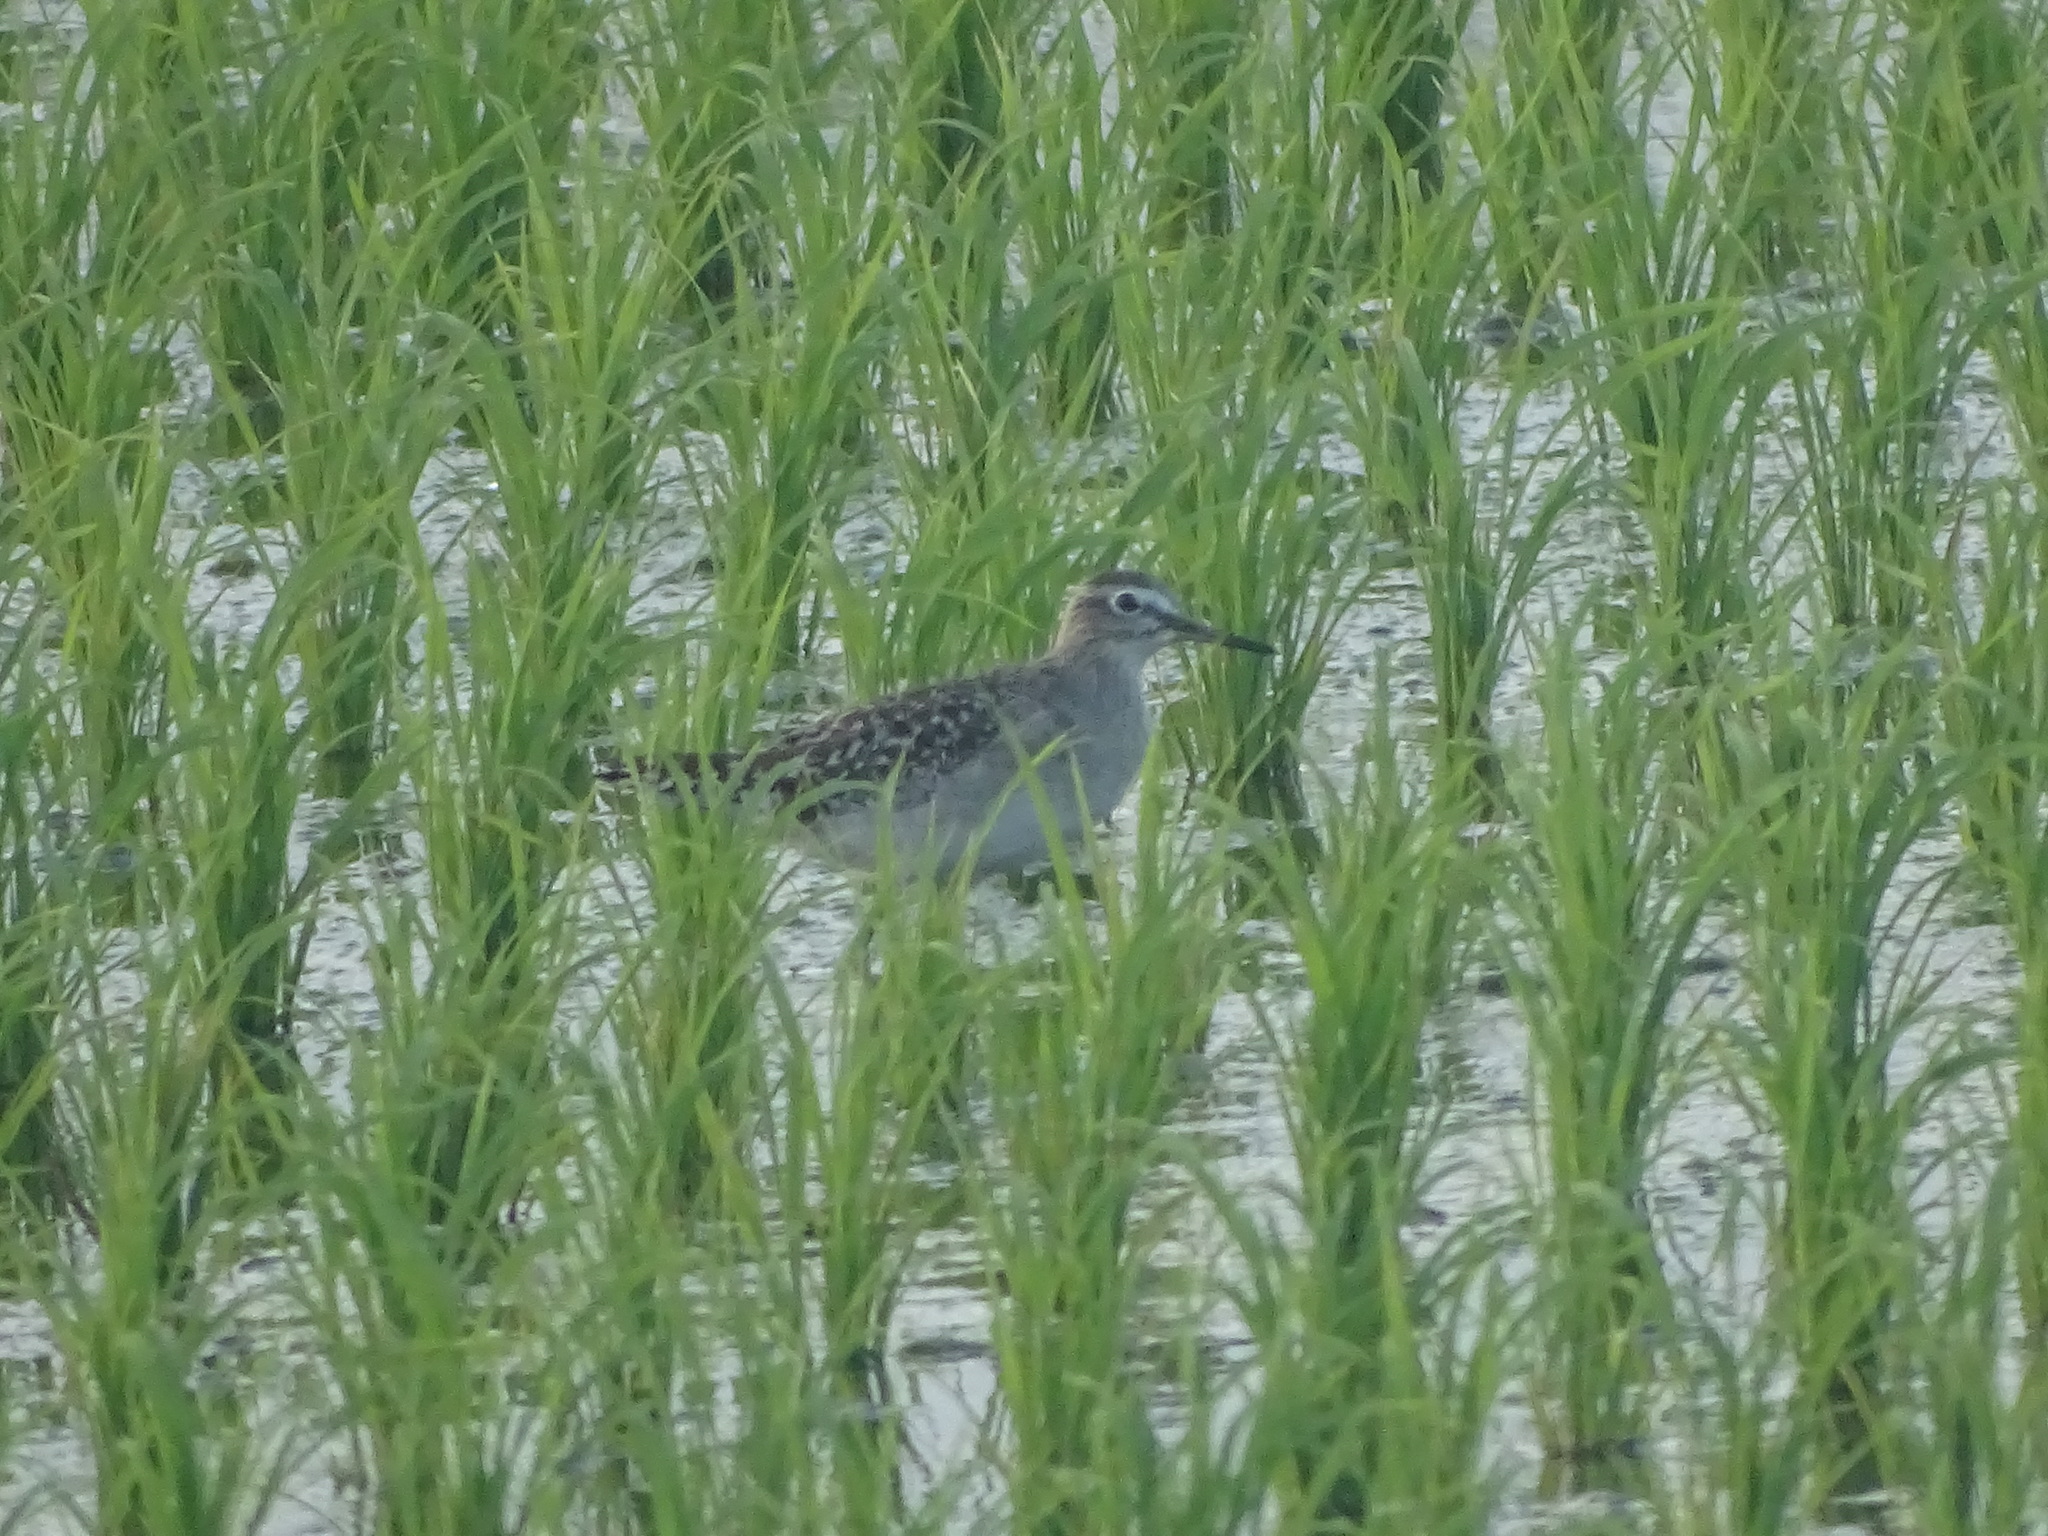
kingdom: Animalia
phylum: Chordata
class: Aves
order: Charadriiformes
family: Scolopacidae
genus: Tringa
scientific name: Tringa glareola
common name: Wood sandpiper
